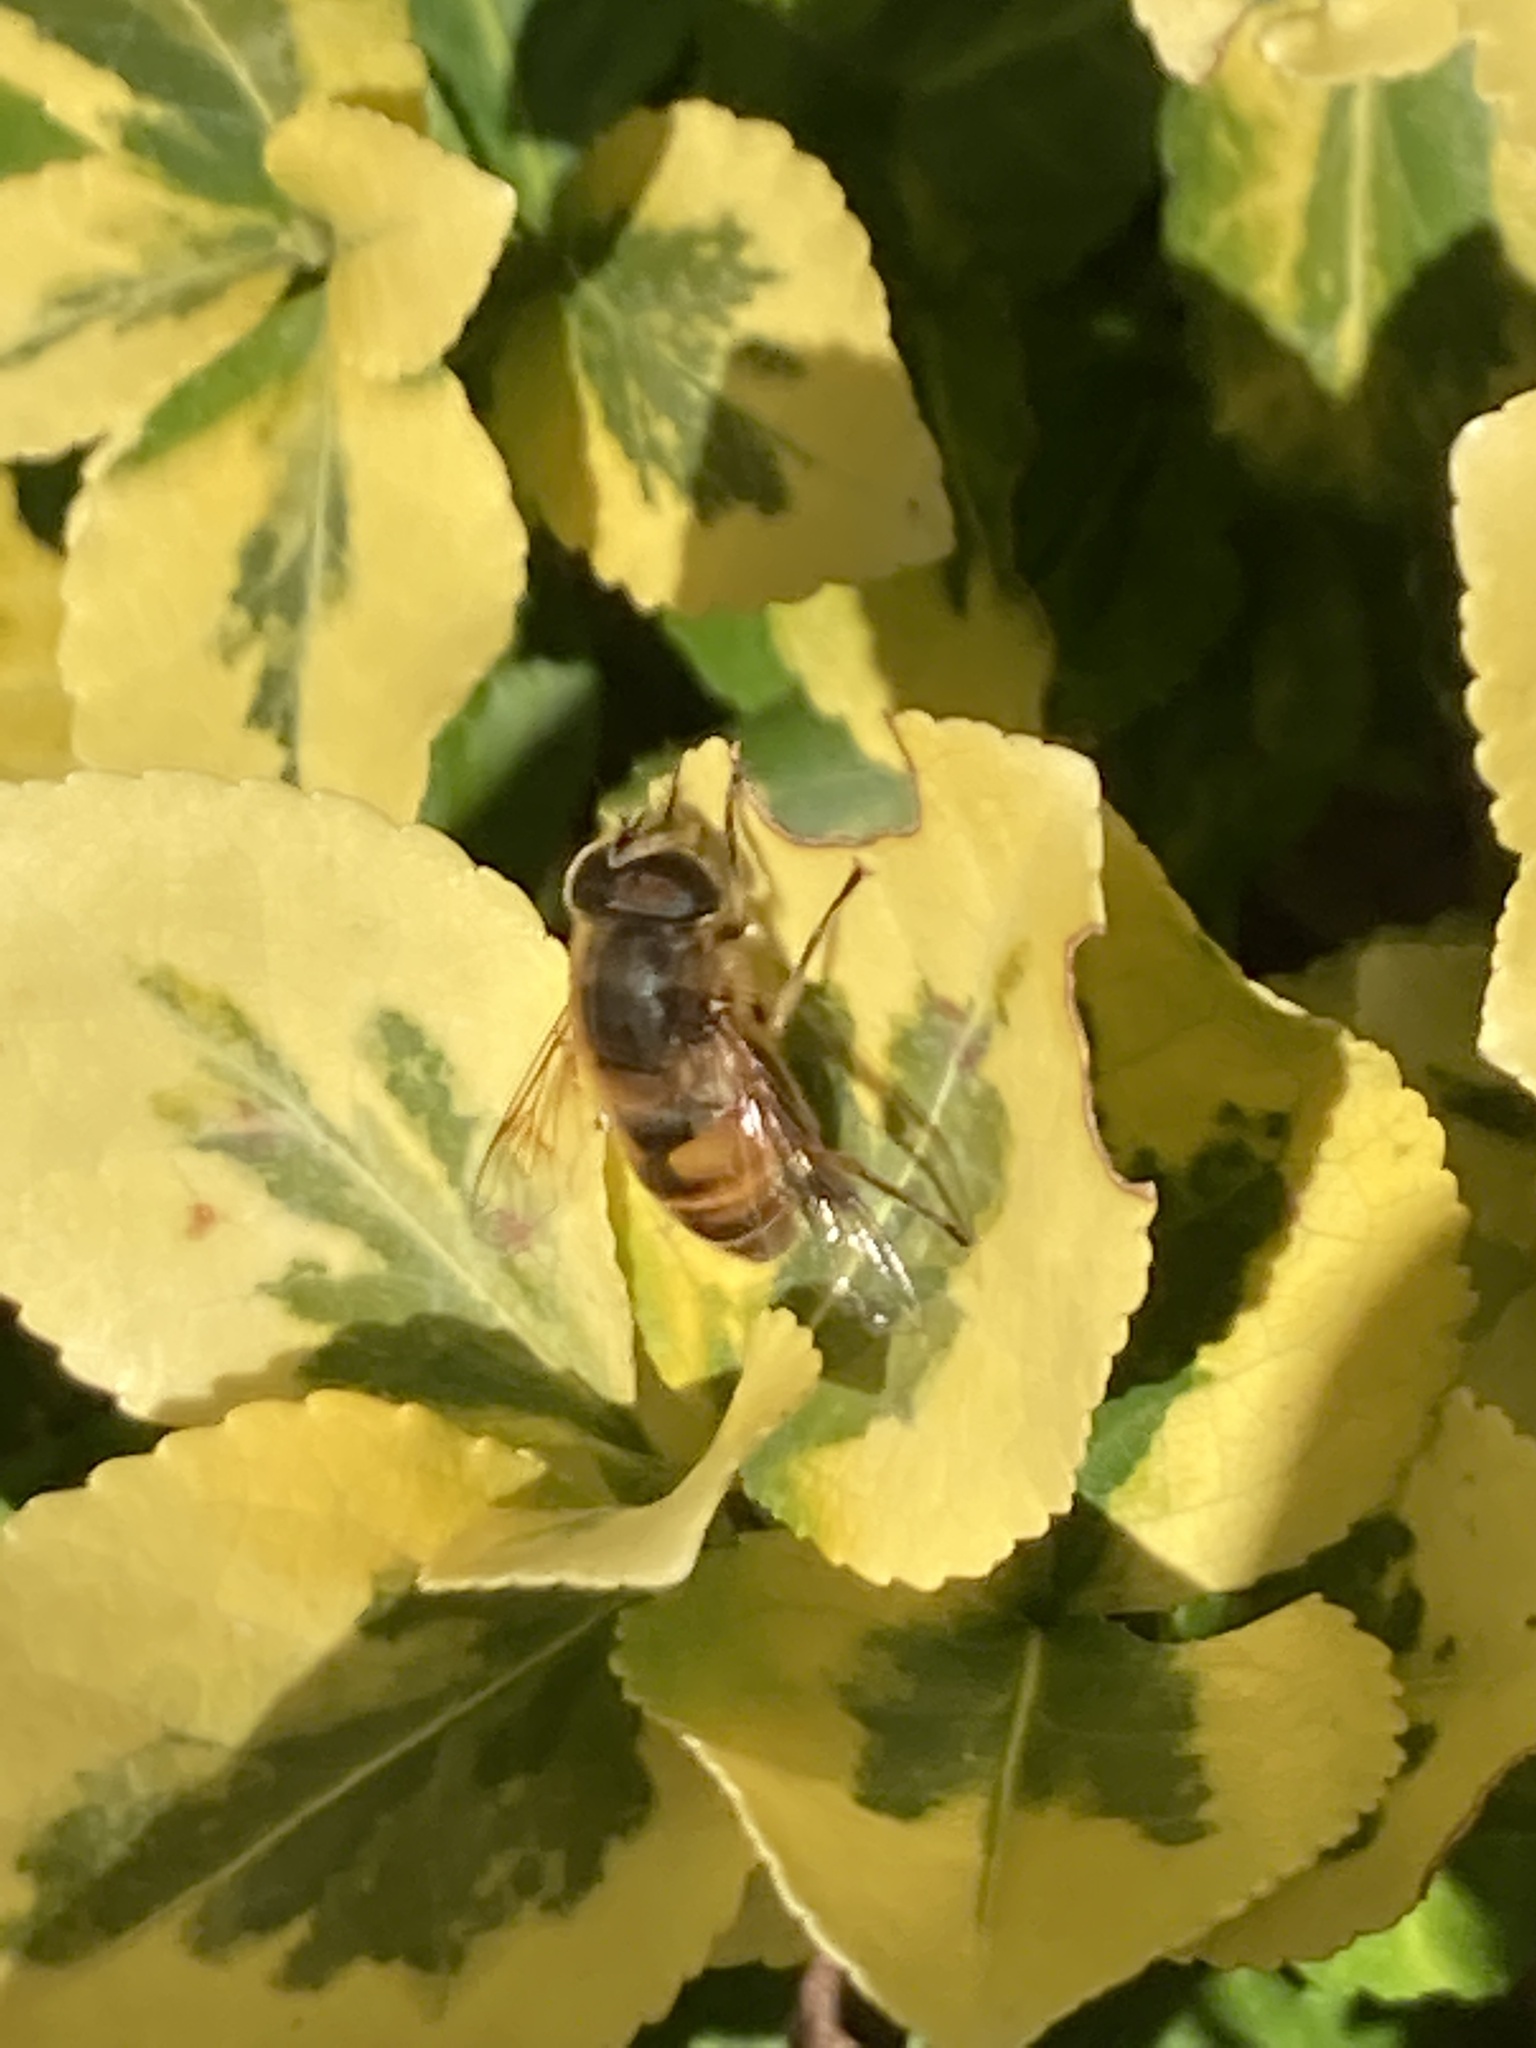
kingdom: Animalia
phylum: Arthropoda
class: Insecta
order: Diptera
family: Syrphidae
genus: Eristalis
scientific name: Eristalis tenax
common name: Drone fly
